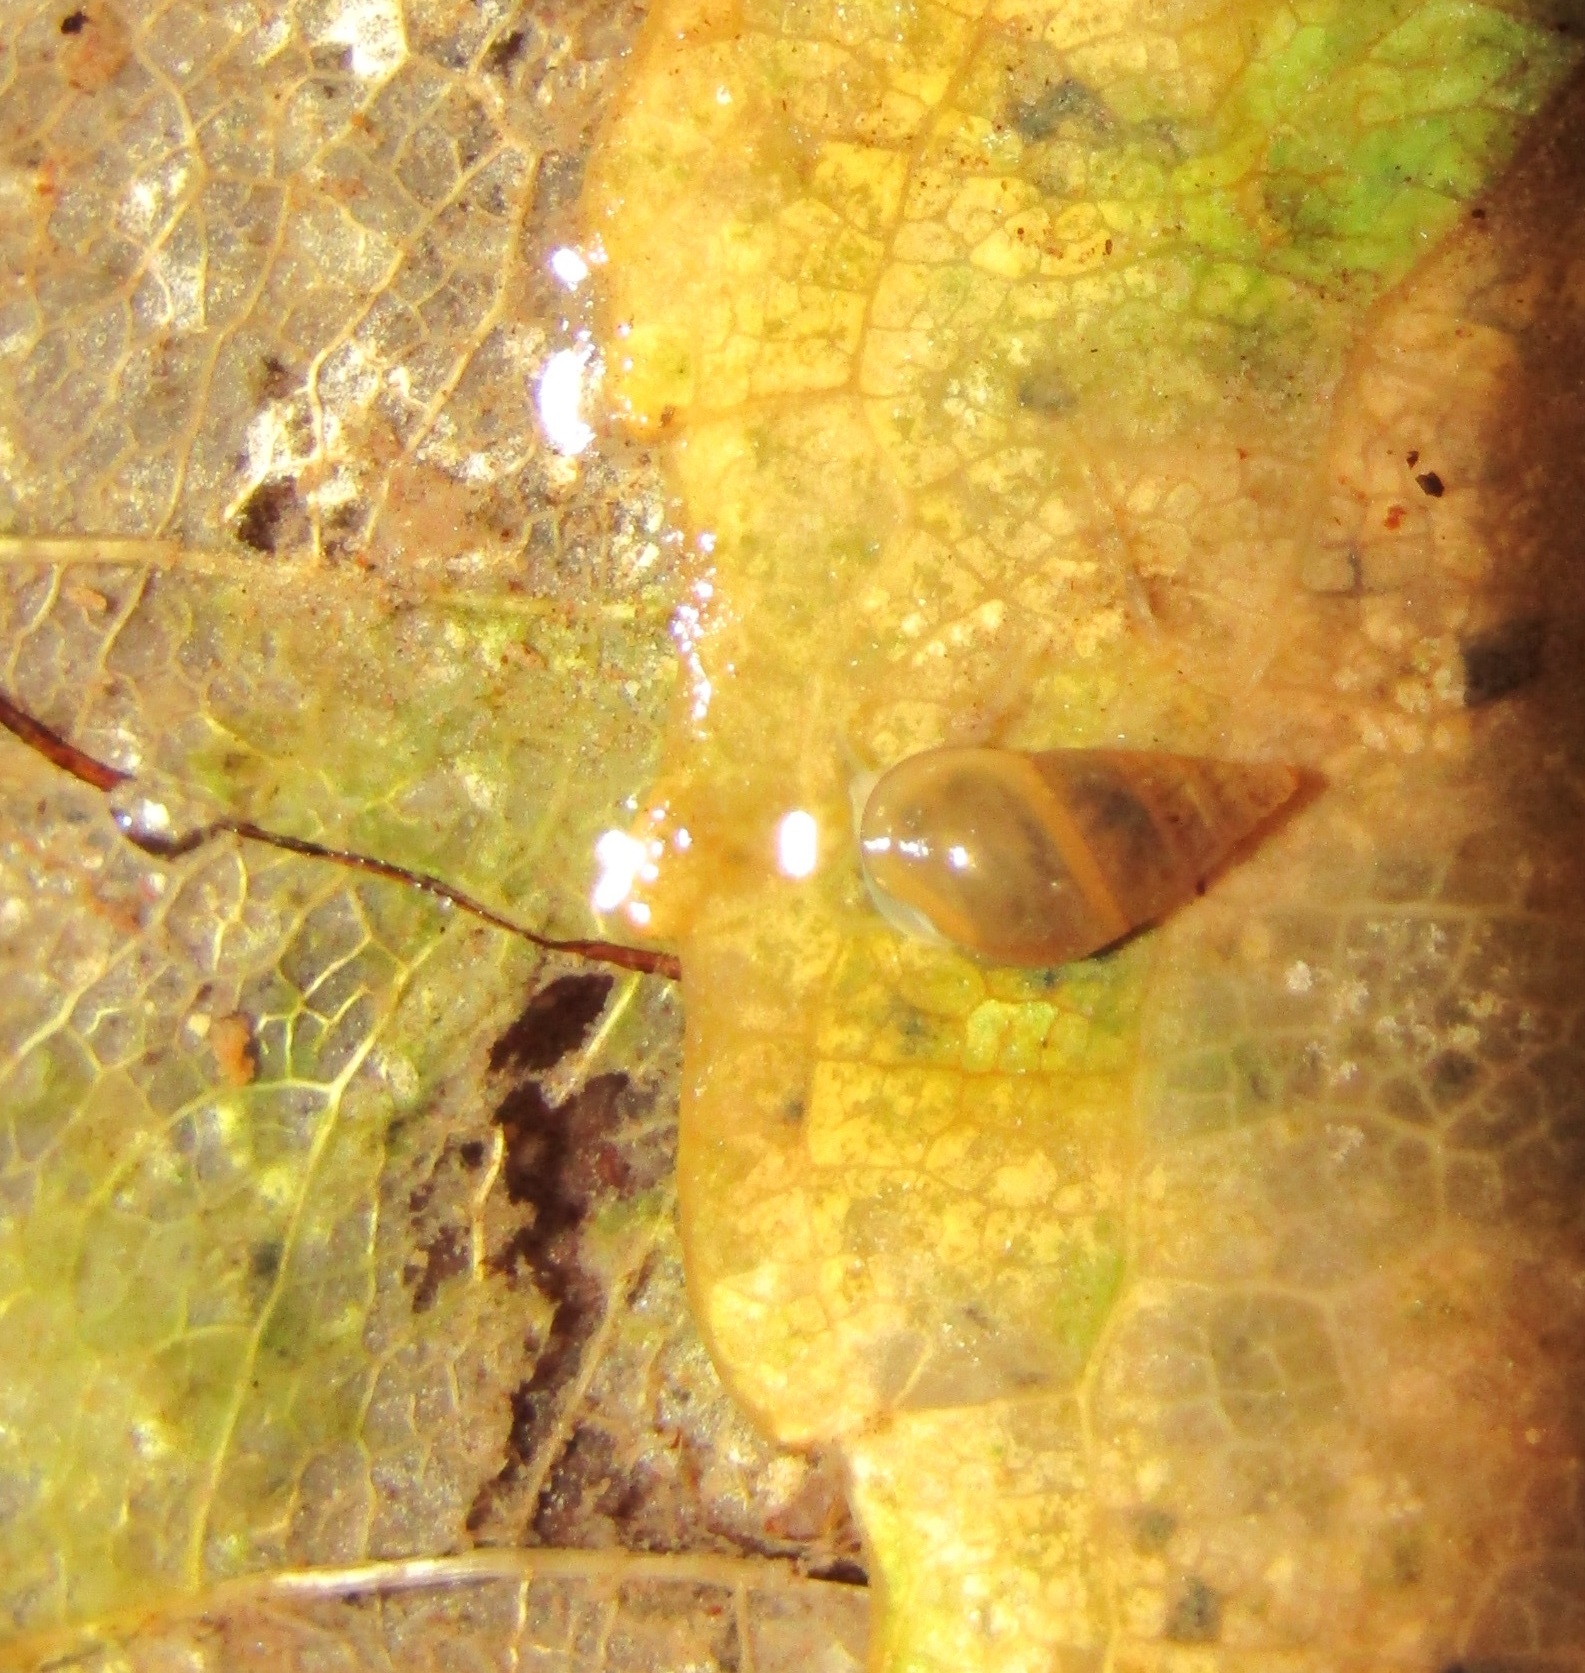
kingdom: Animalia
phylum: Mollusca
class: Gastropoda
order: Littorinimorpha
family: Tateidae
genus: Potamopyrgus
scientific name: Potamopyrgus antipodarum
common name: Jenkins' spire snail
